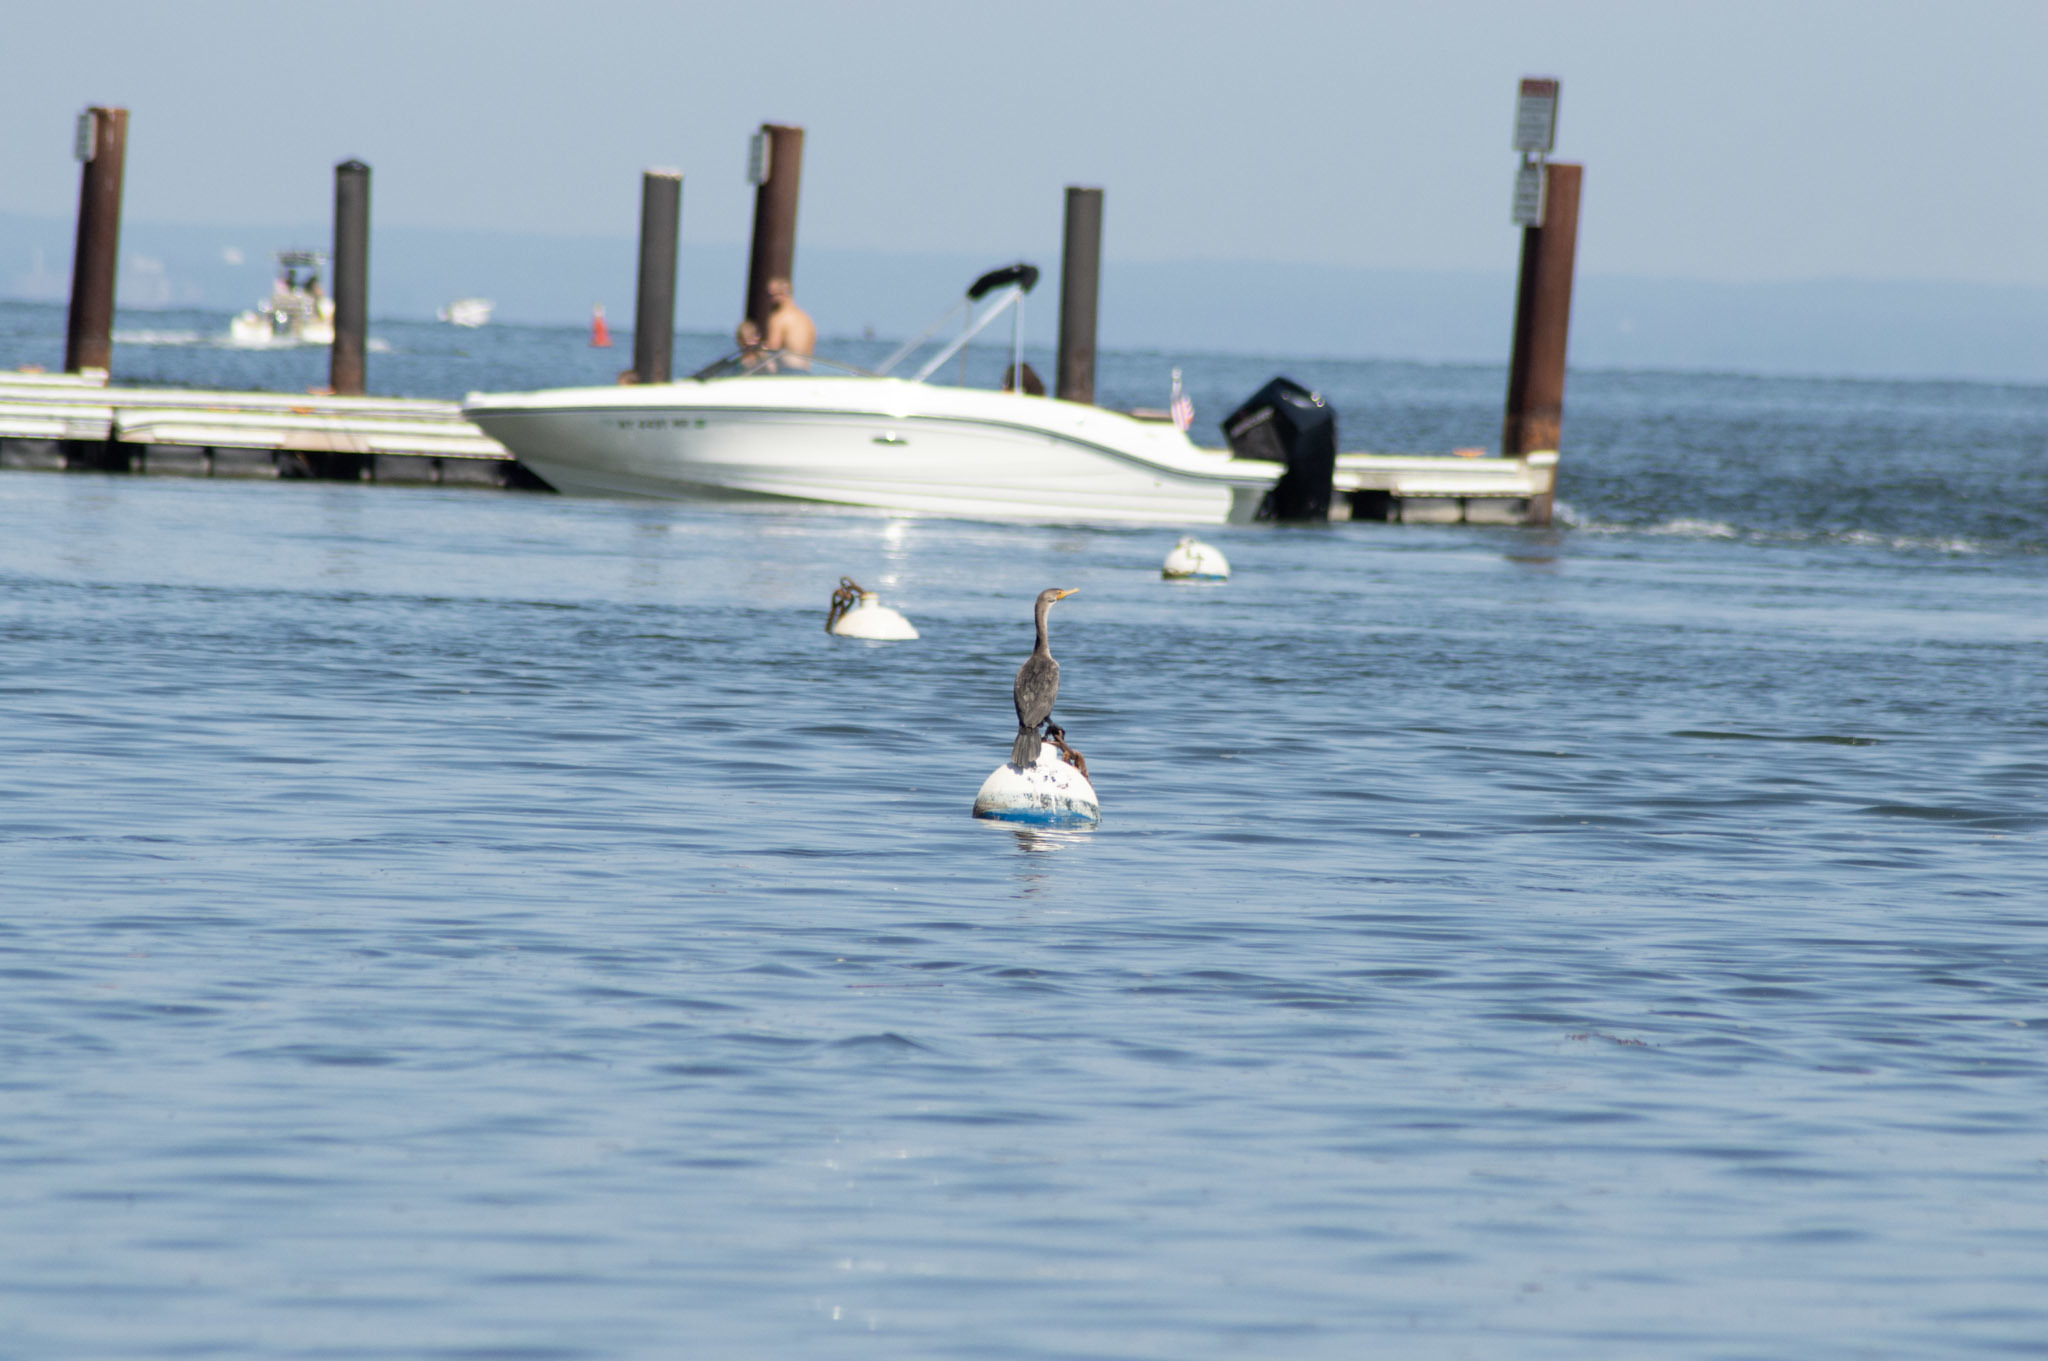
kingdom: Animalia
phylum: Chordata
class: Aves
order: Suliformes
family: Phalacrocoracidae
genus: Phalacrocorax
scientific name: Phalacrocorax auritus
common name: Double-crested cormorant
